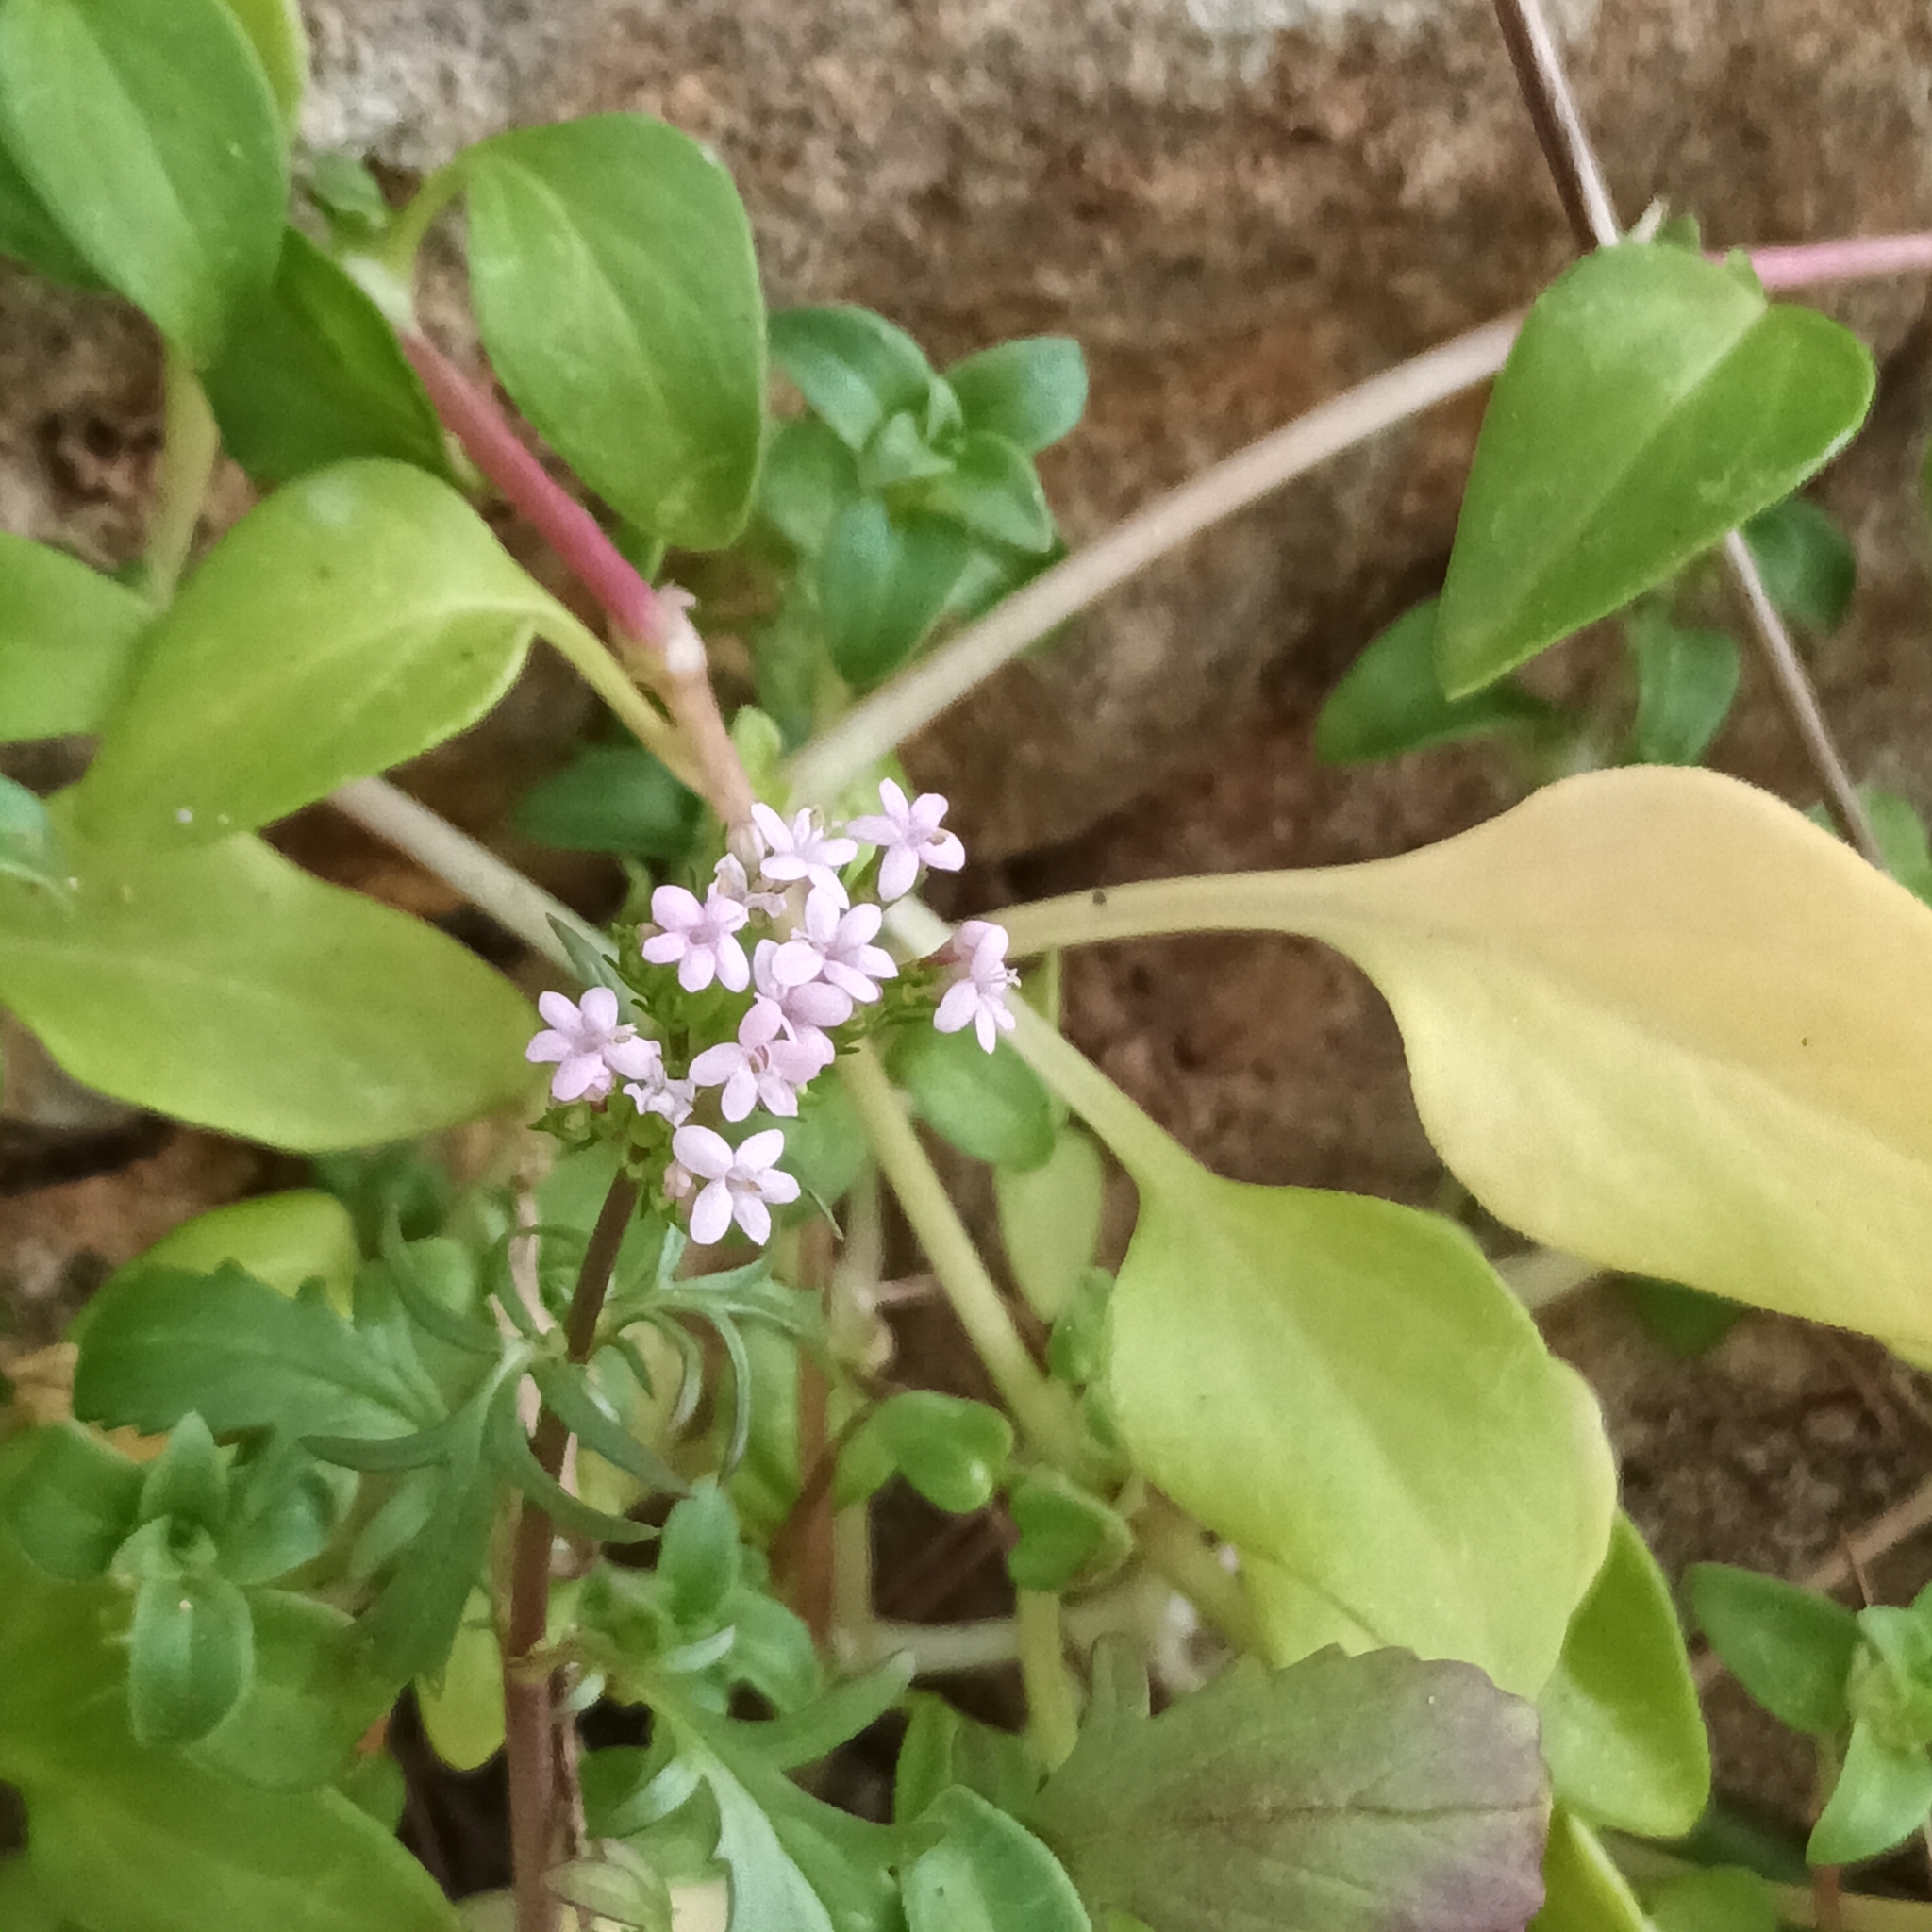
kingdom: Plantae
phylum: Tracheophyta
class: Magnoliopsida
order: Dipsacales
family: Caprifoliaceae
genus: Centranthus
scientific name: Centranthus calcitrapae
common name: Annual valerian
